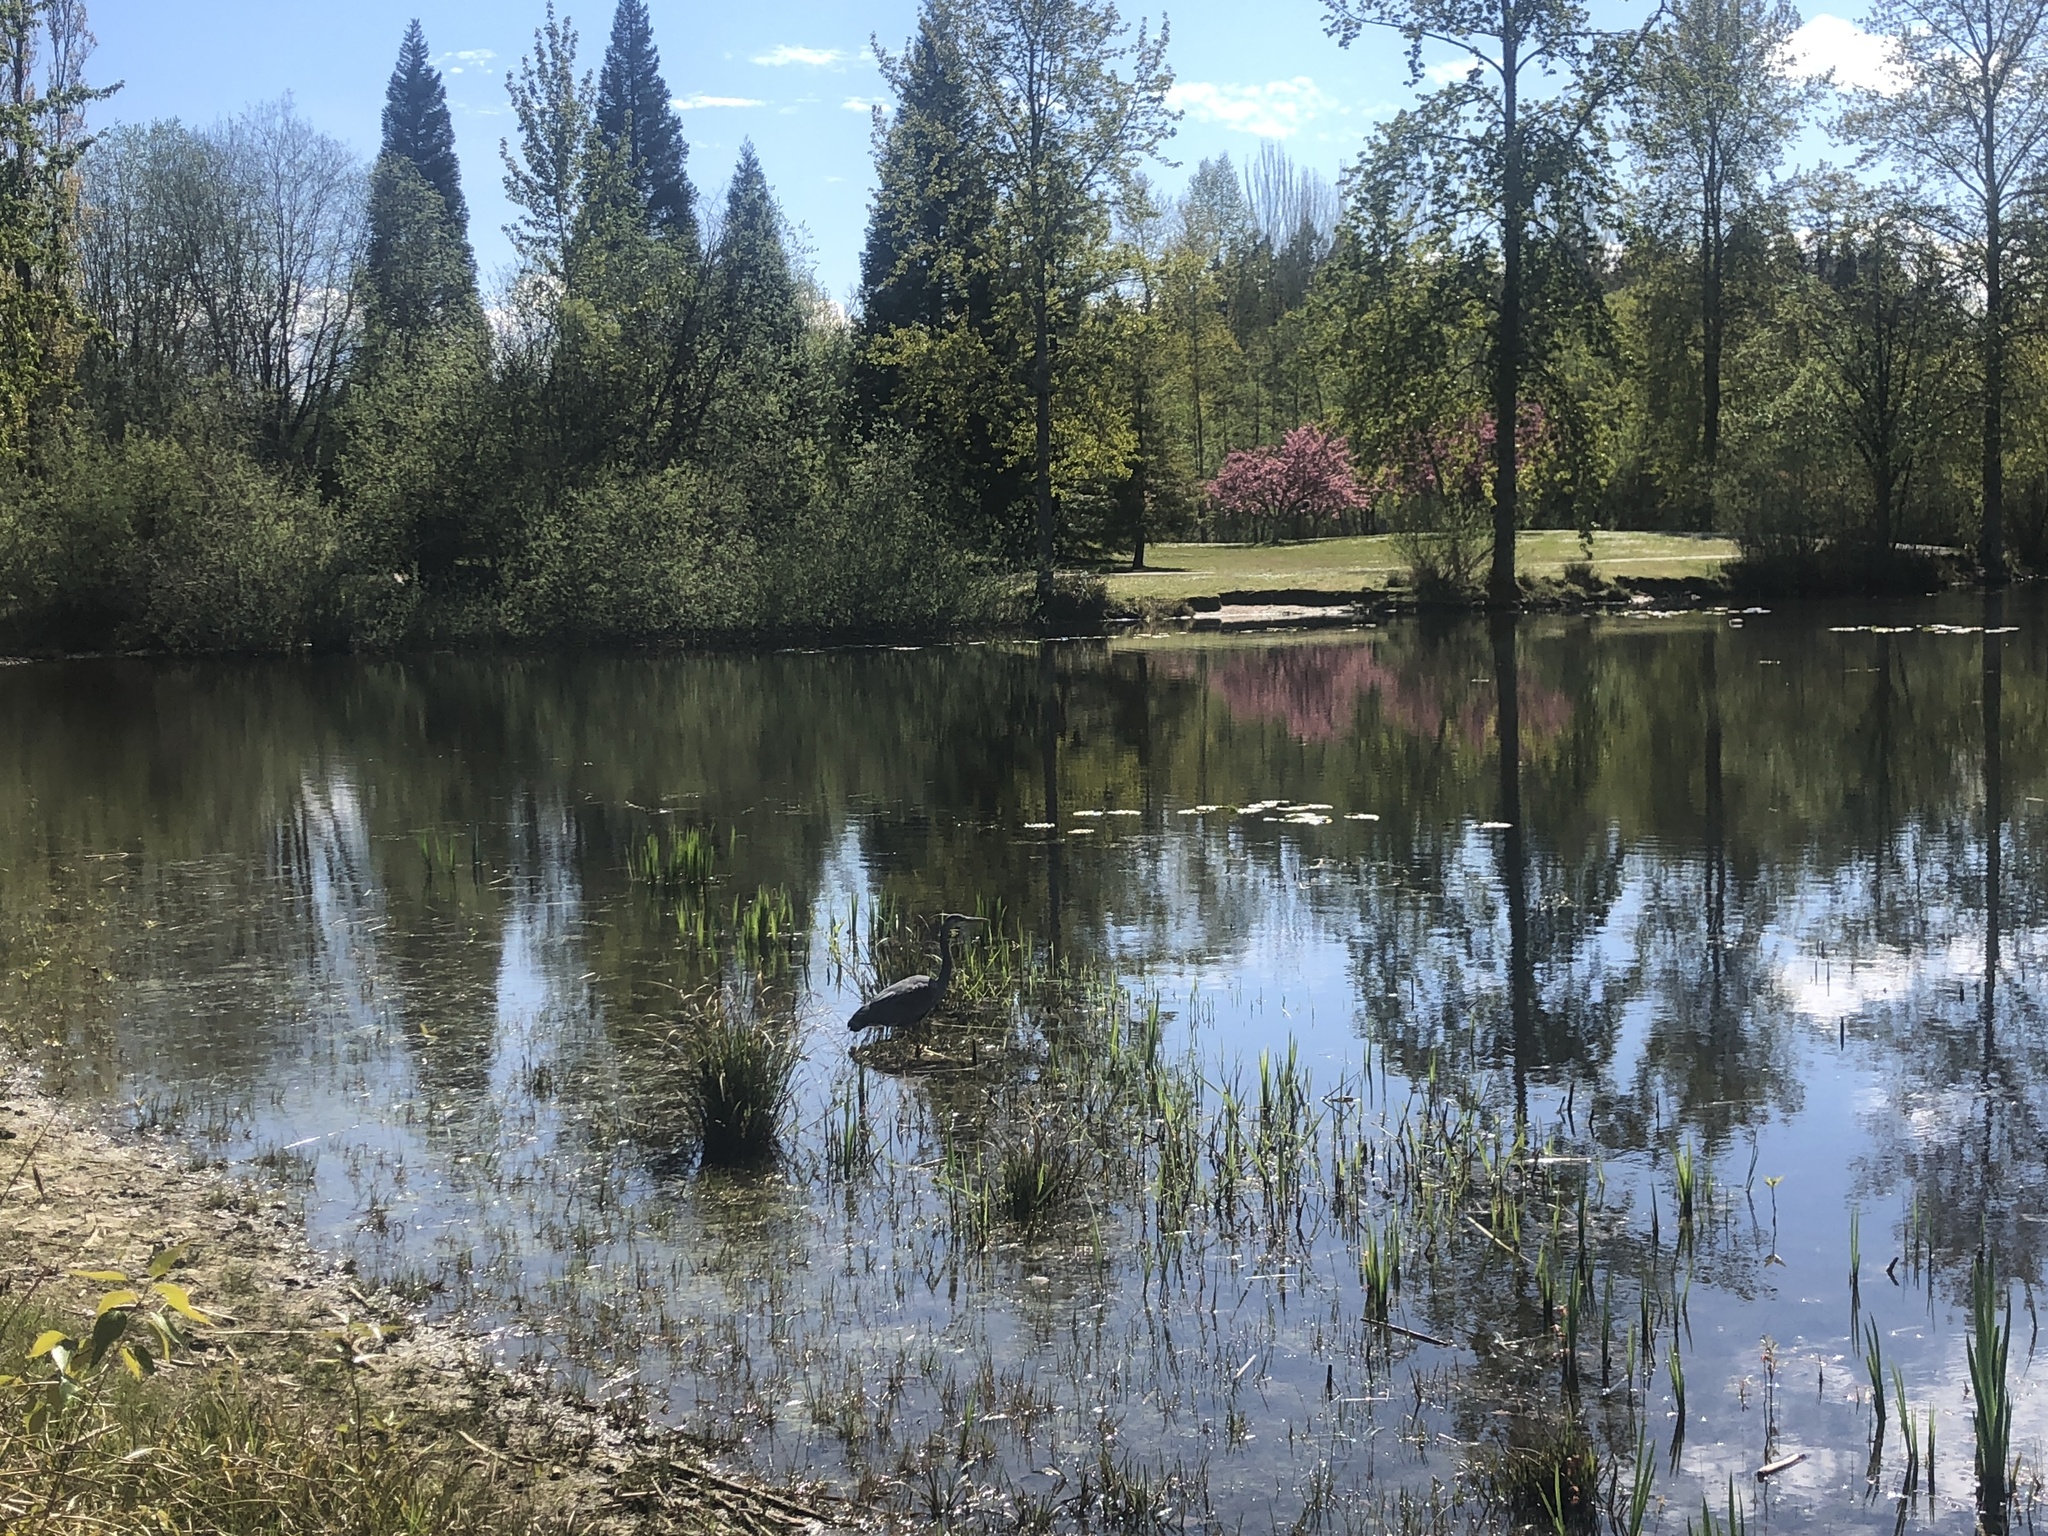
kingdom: Animalia
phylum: Chordata
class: Aves
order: Pelecaniformes
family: Ardeidae
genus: Ardea
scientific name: Ardea herodias
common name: Great blue heron
